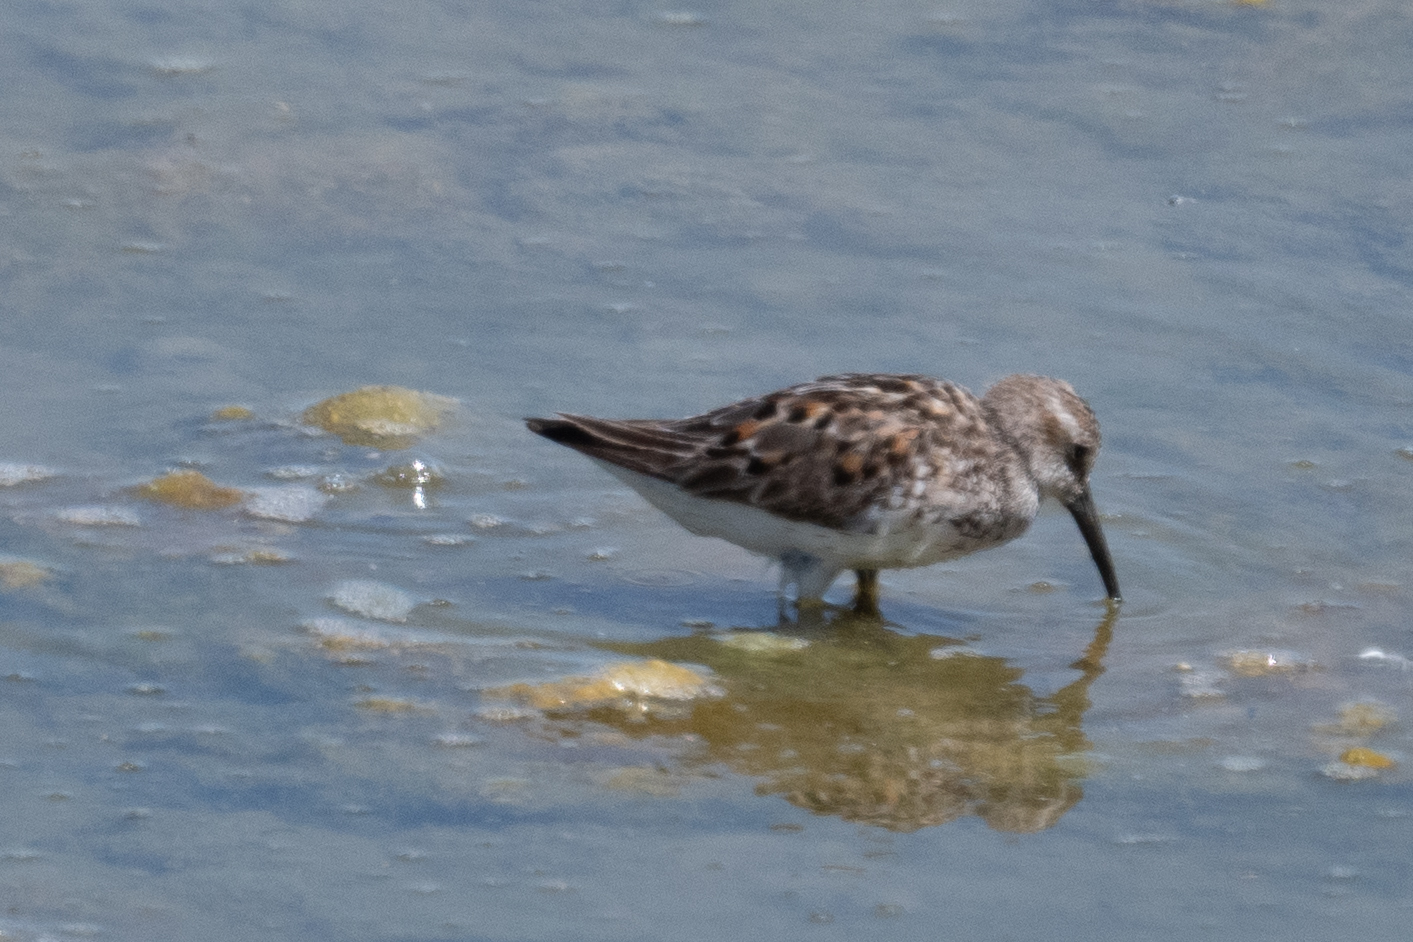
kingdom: Animalia
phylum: Chordata
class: Aves
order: Charadriiformes
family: Scolopacidae
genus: Calidris
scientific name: Calidris mauri
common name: Western sandpiper
